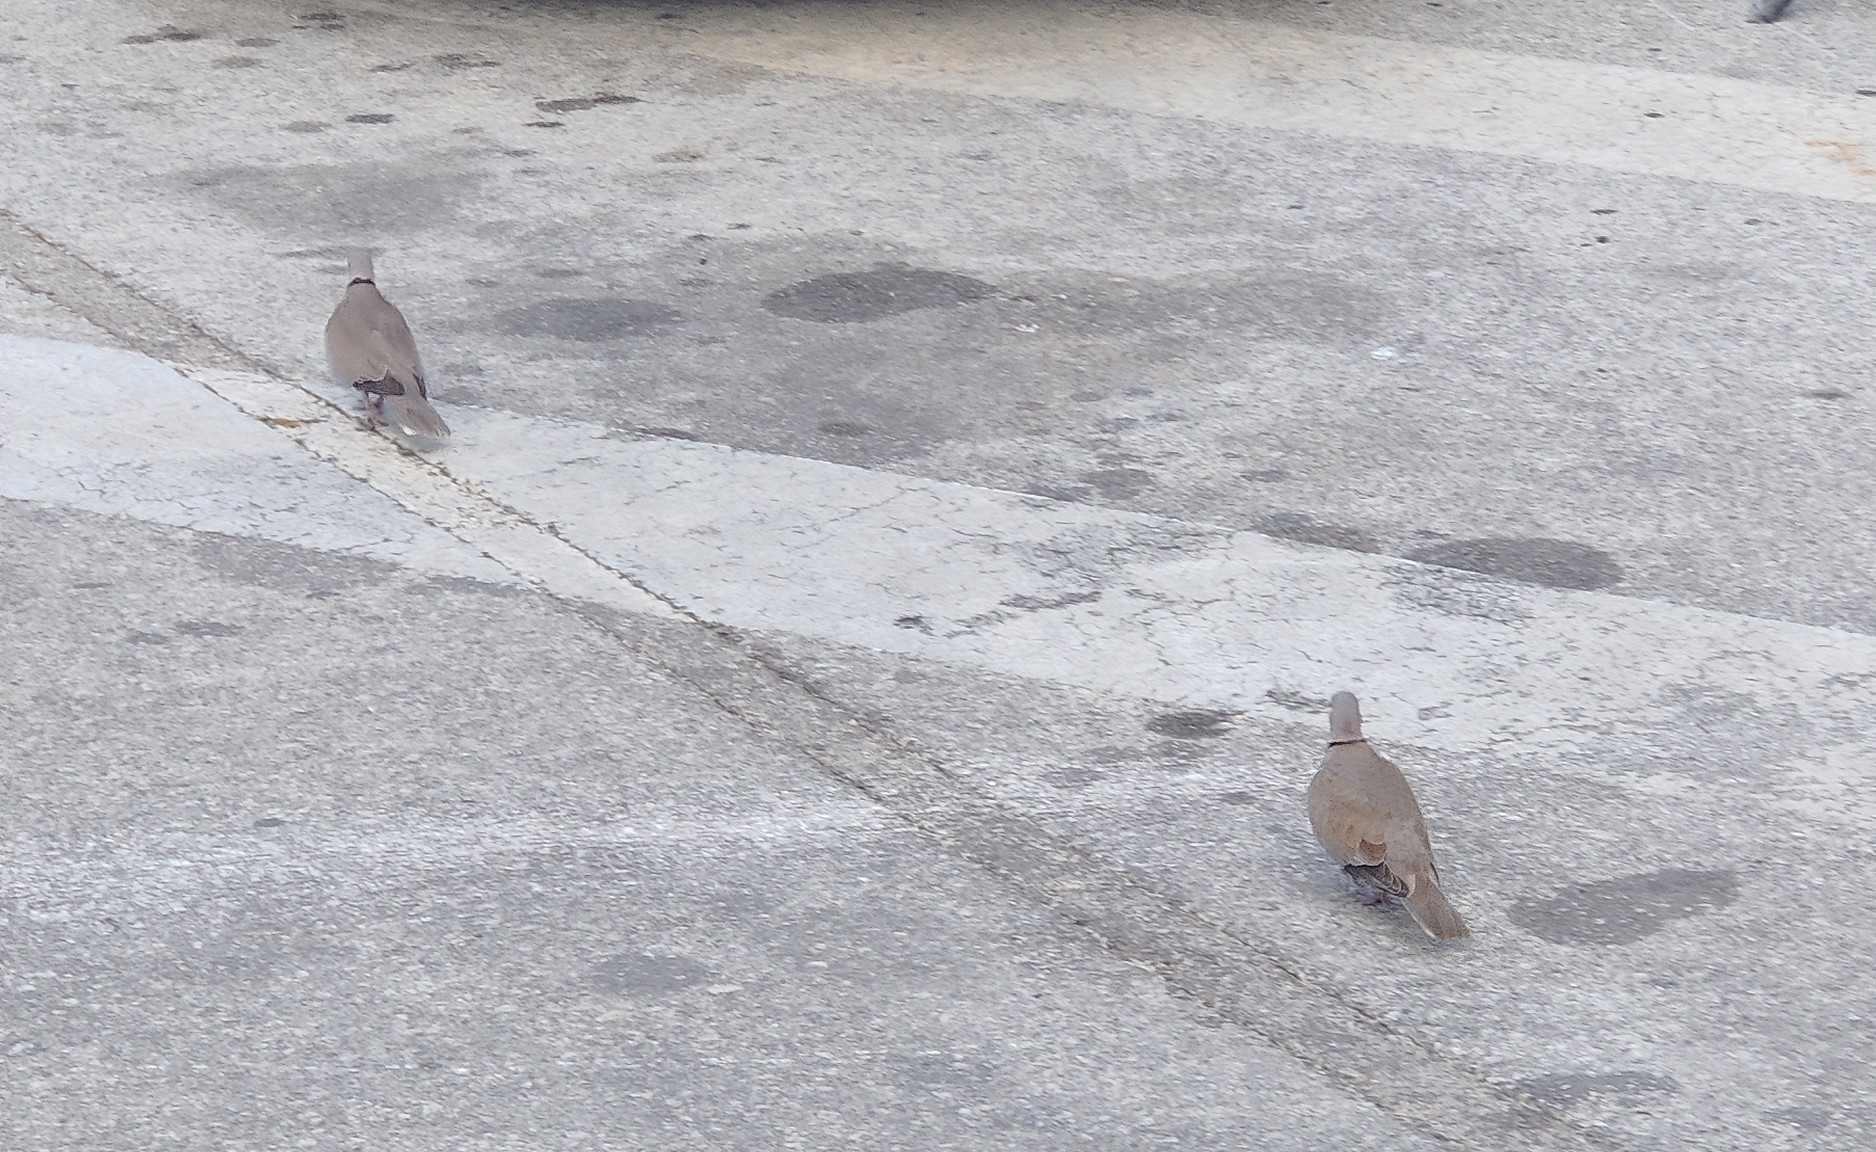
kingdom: Animalia
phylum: Chordata
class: Aves
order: Columbiformes
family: Columbidae
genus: Streptopelia
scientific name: Streptopelia decaocto
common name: Eurasian collared dove
